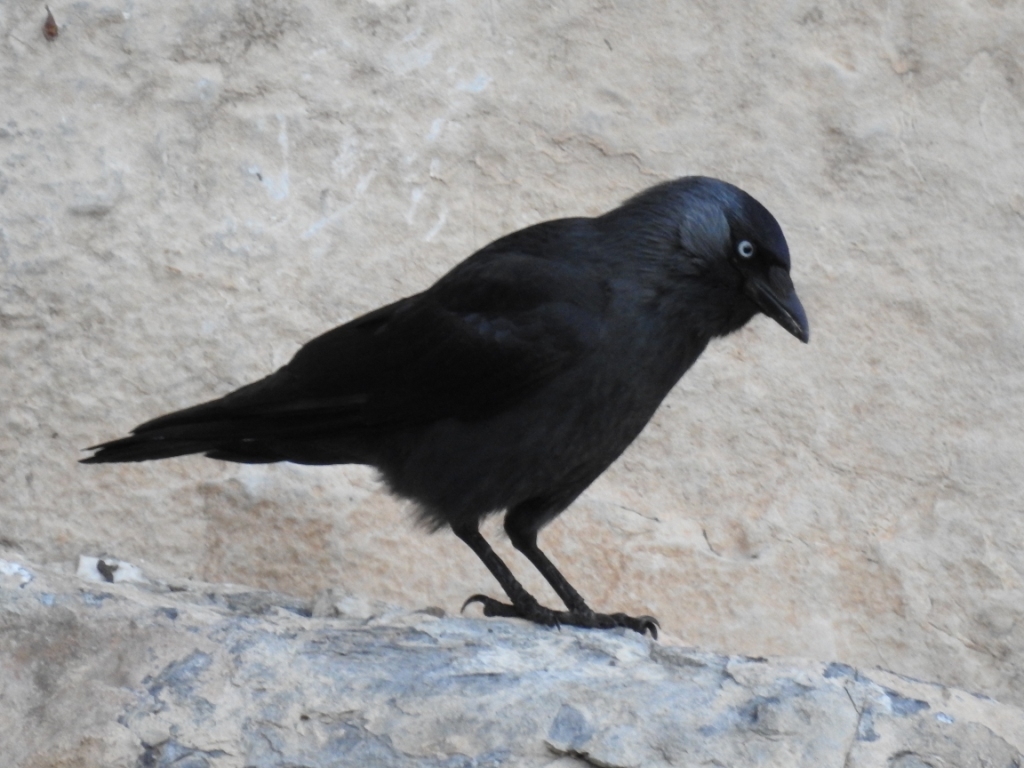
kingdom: Animalia
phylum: Chordata
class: Aves
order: Passeriformes
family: Corvidae
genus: Coloeus
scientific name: Coloeus monedula
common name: Western jackdaw
